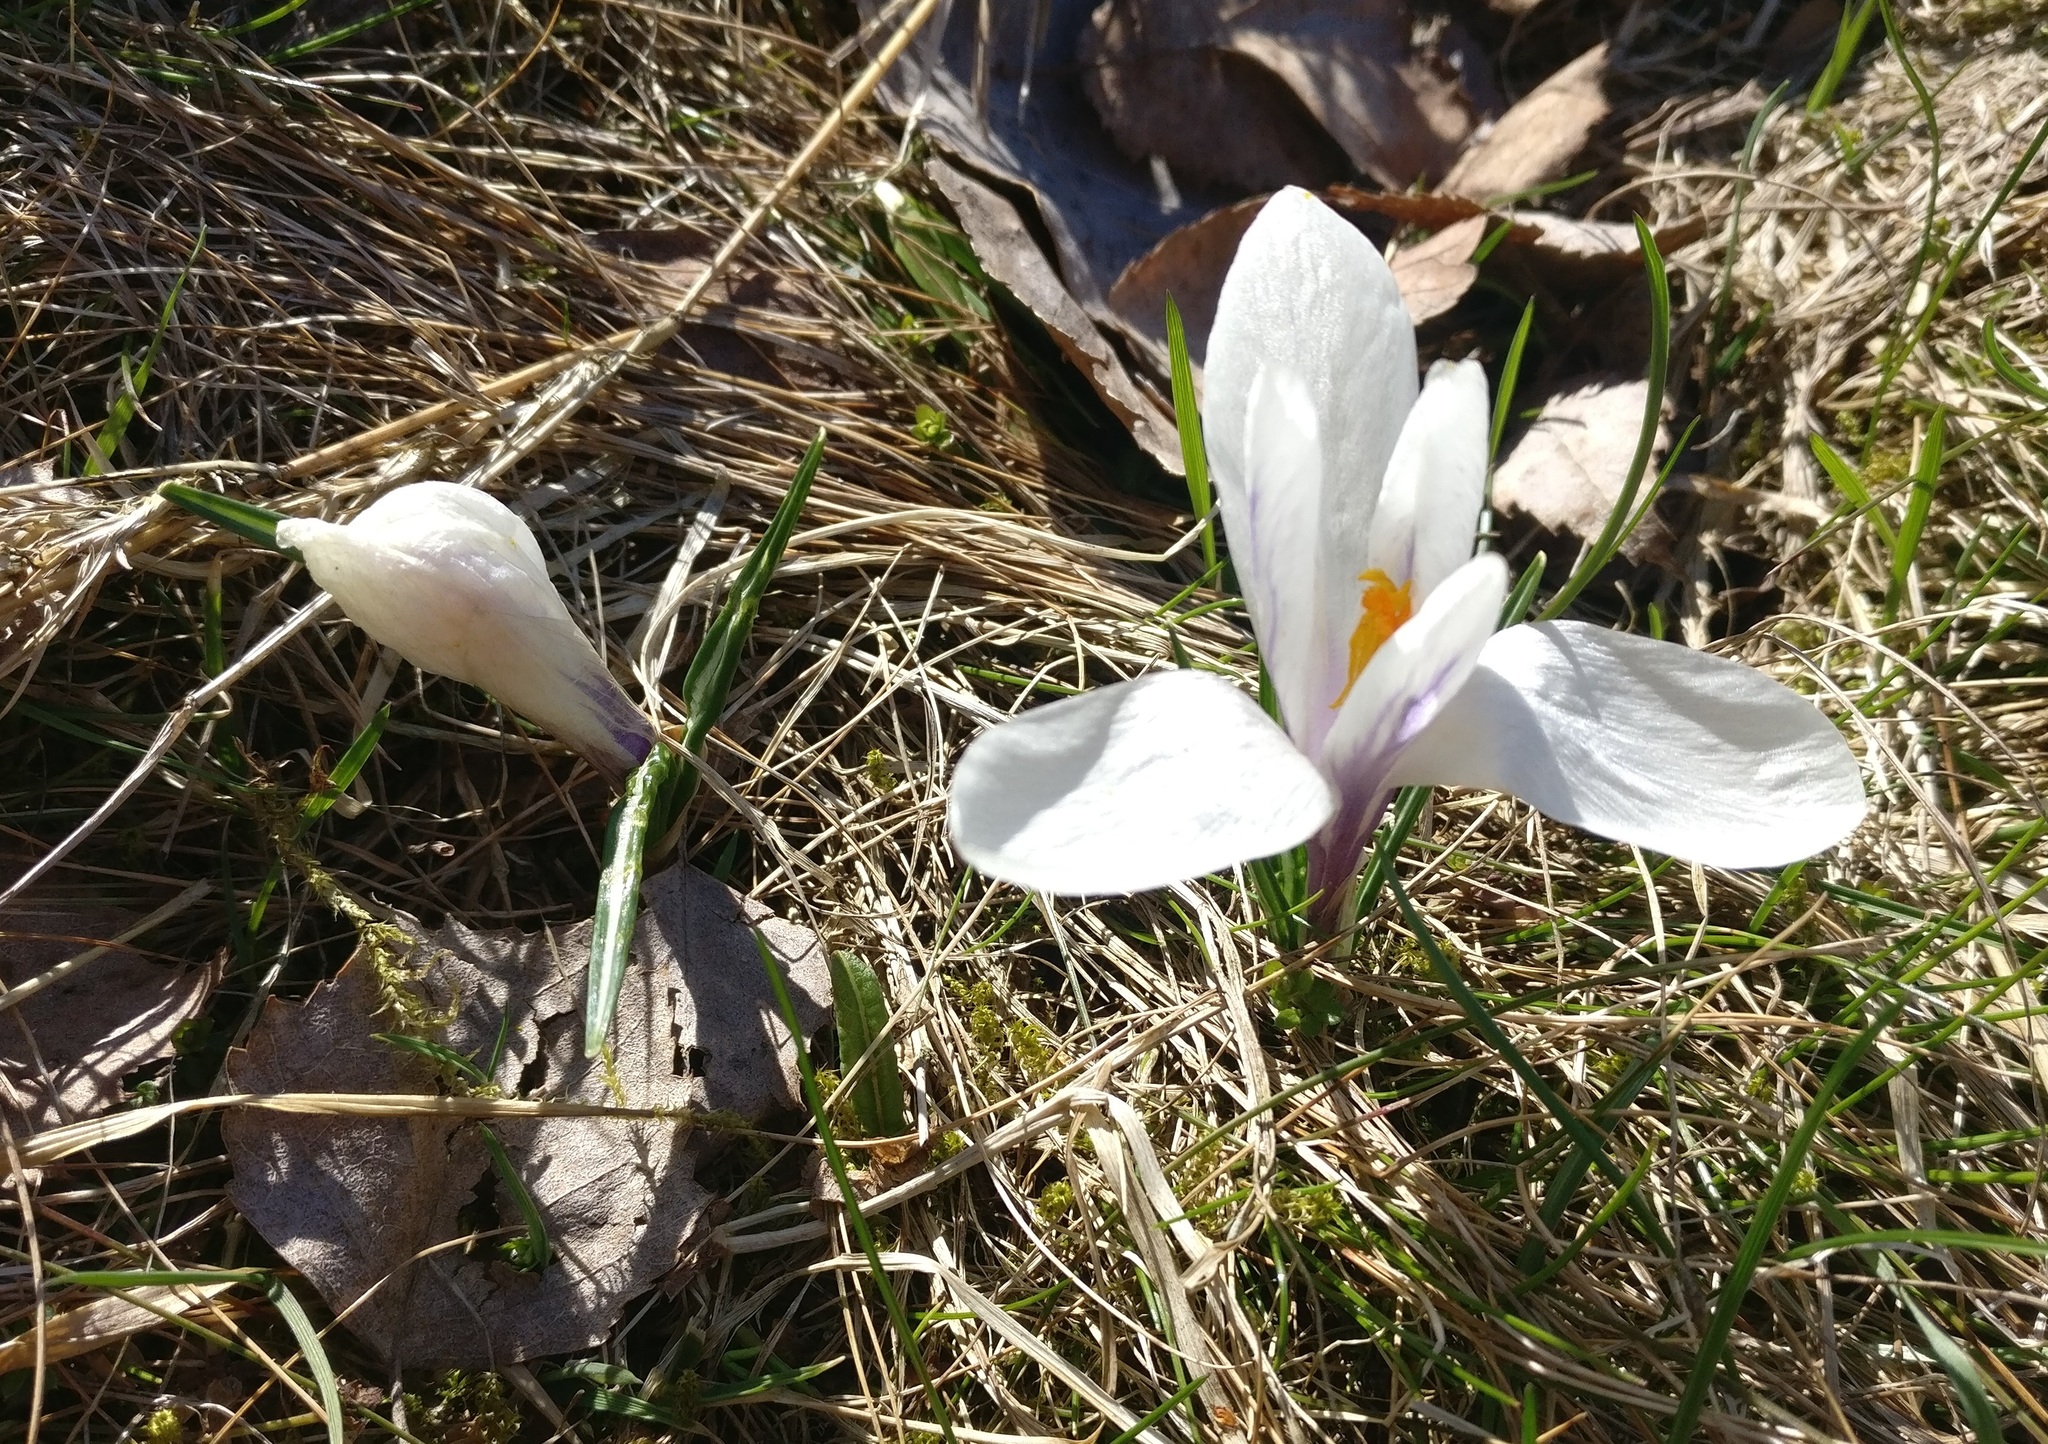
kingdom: Plantae
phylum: Tracheophyta
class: Liliopsida
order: Asparagales
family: Iridaceae
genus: Crocus
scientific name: Crocus vernus
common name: Spring crocus
